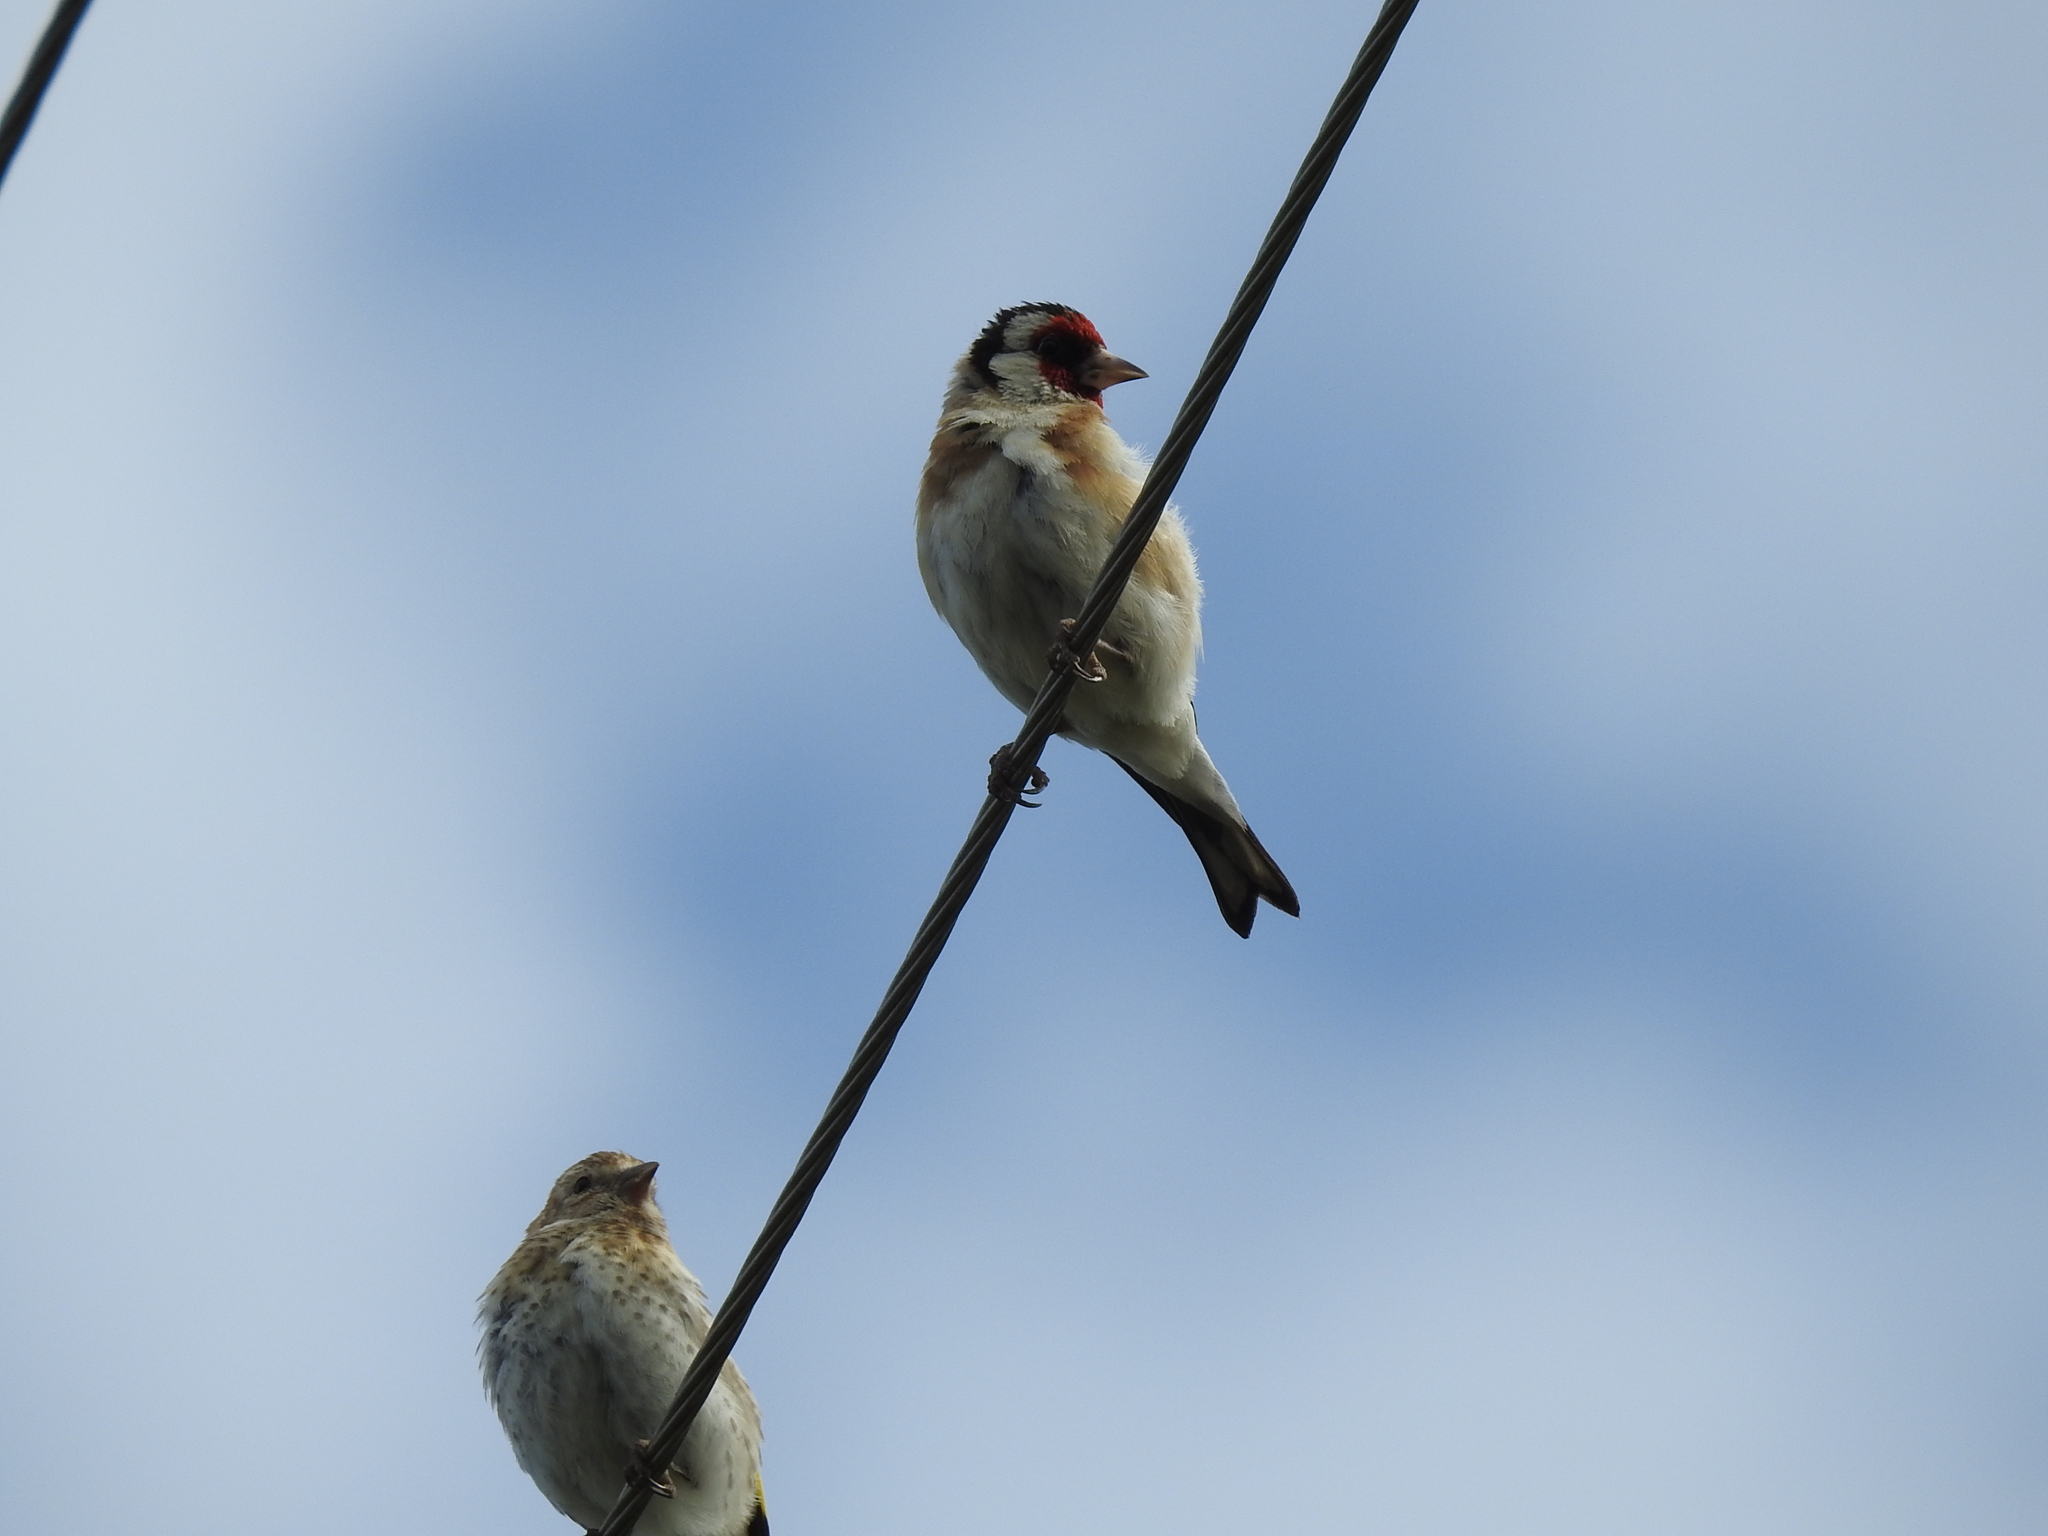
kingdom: Animalia
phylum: Chordata
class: Aves
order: Passeriformes
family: Fringillidae
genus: Carduelis
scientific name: Carduelis carduelis
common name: European goldfinch
